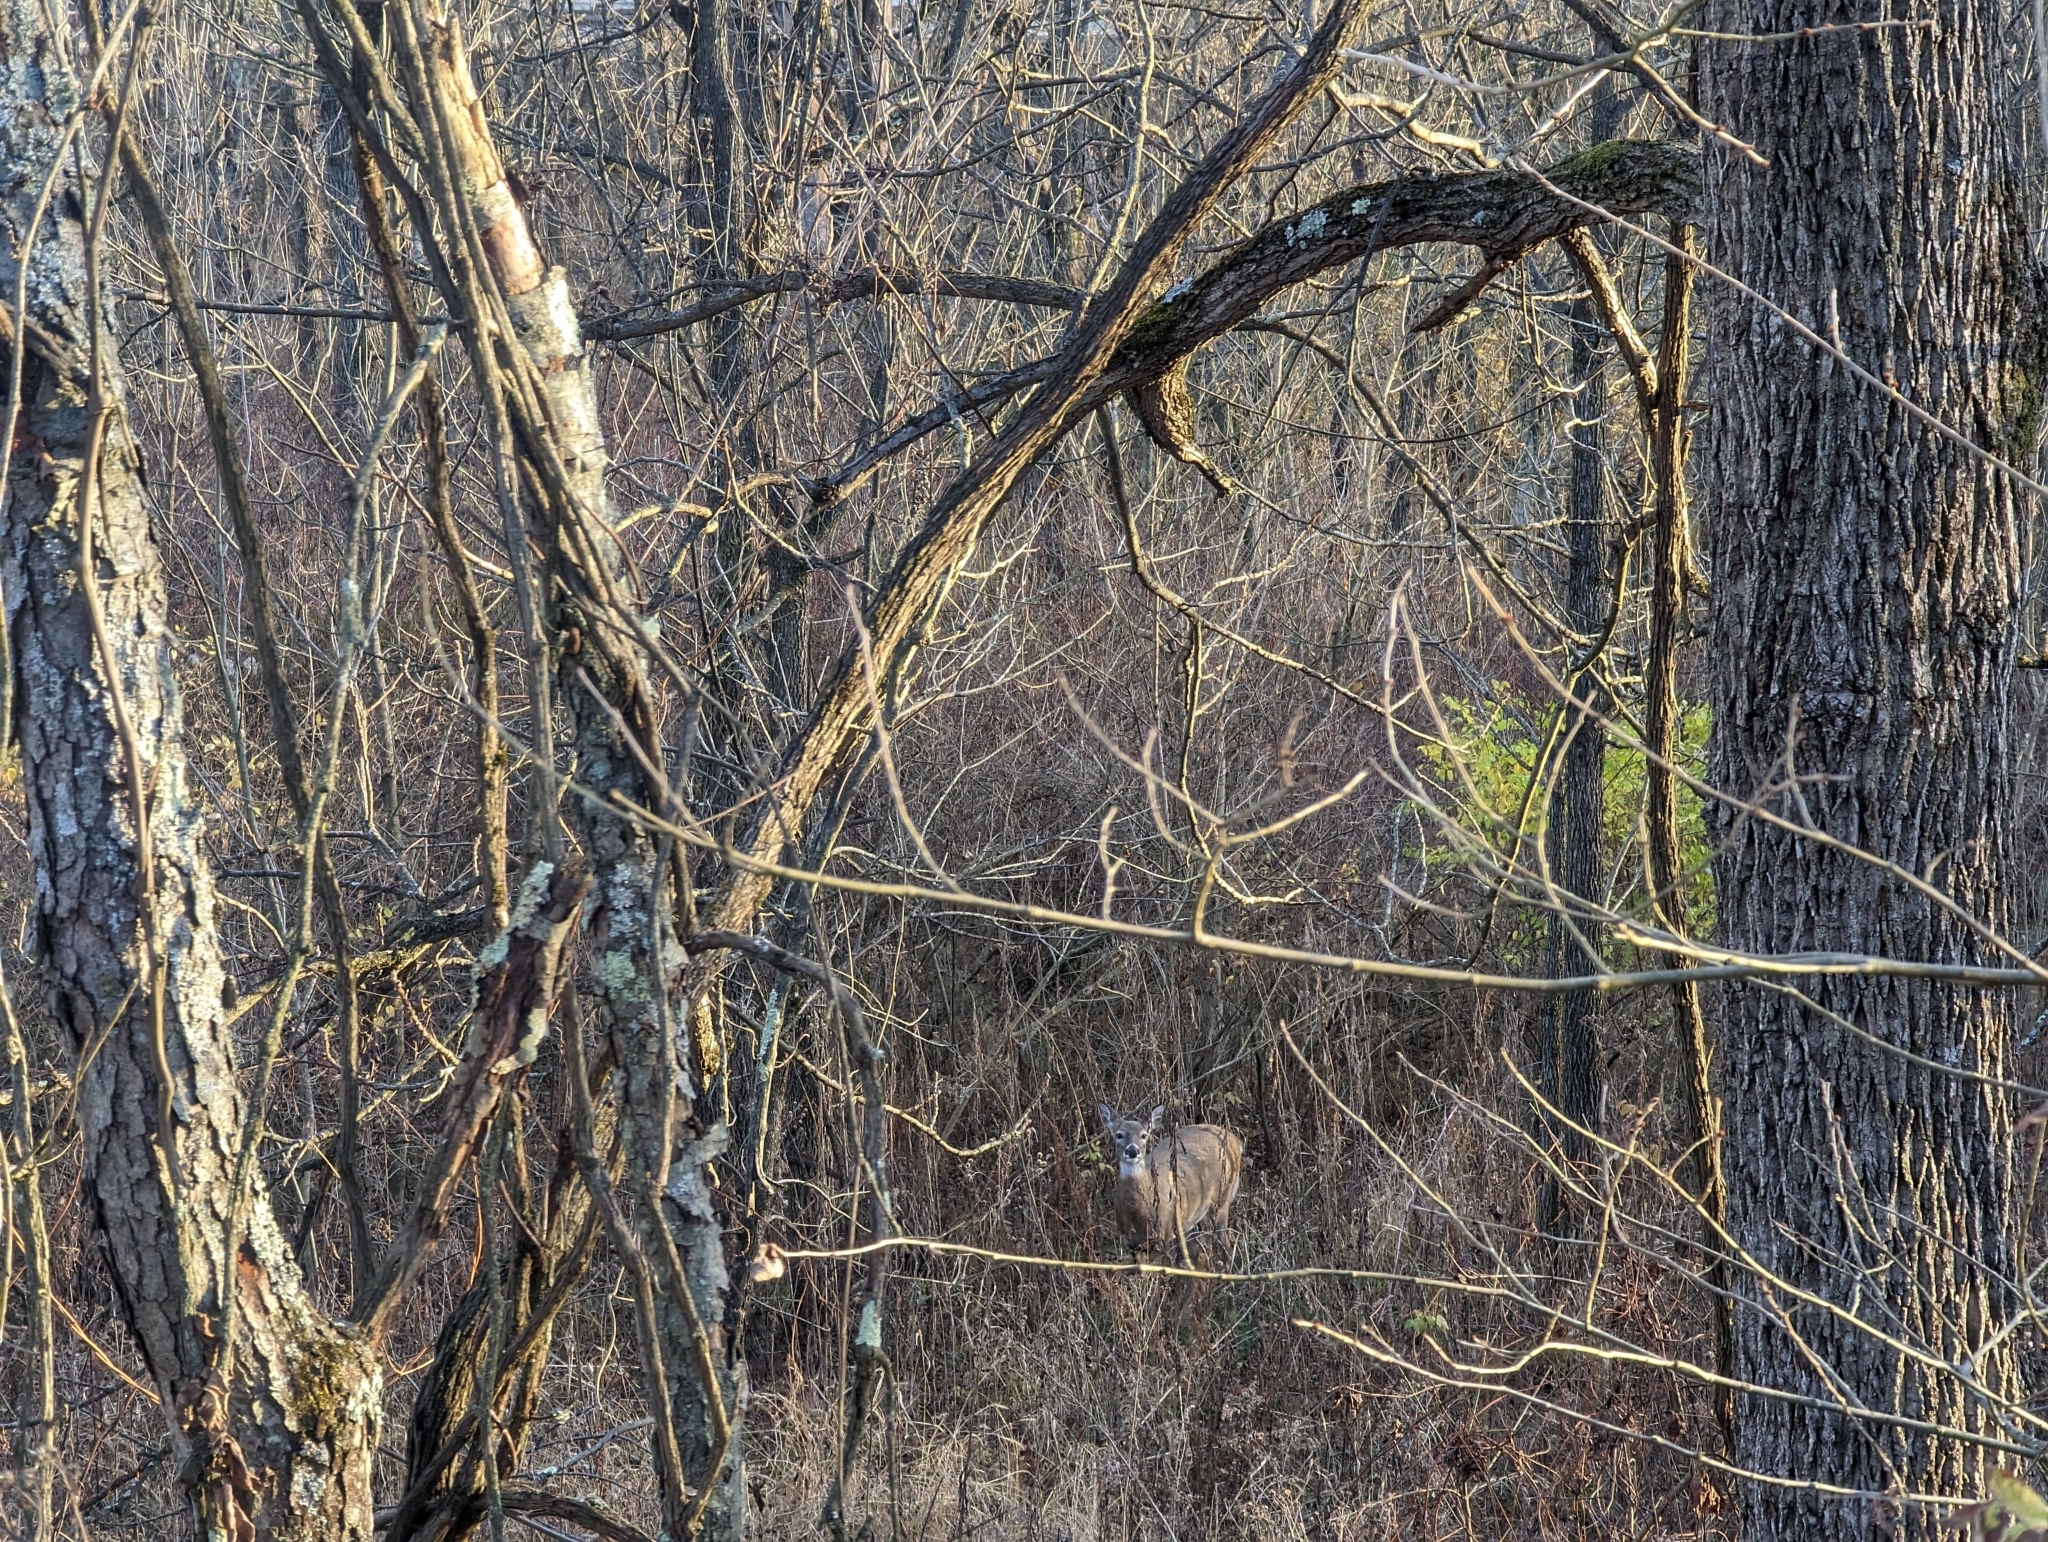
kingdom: Animalia
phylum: Chordata
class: Mammalia
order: Artiodactyla
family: Cervidae
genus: Odocoileus
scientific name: Odocoileus virginianus
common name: White-tailed deer
